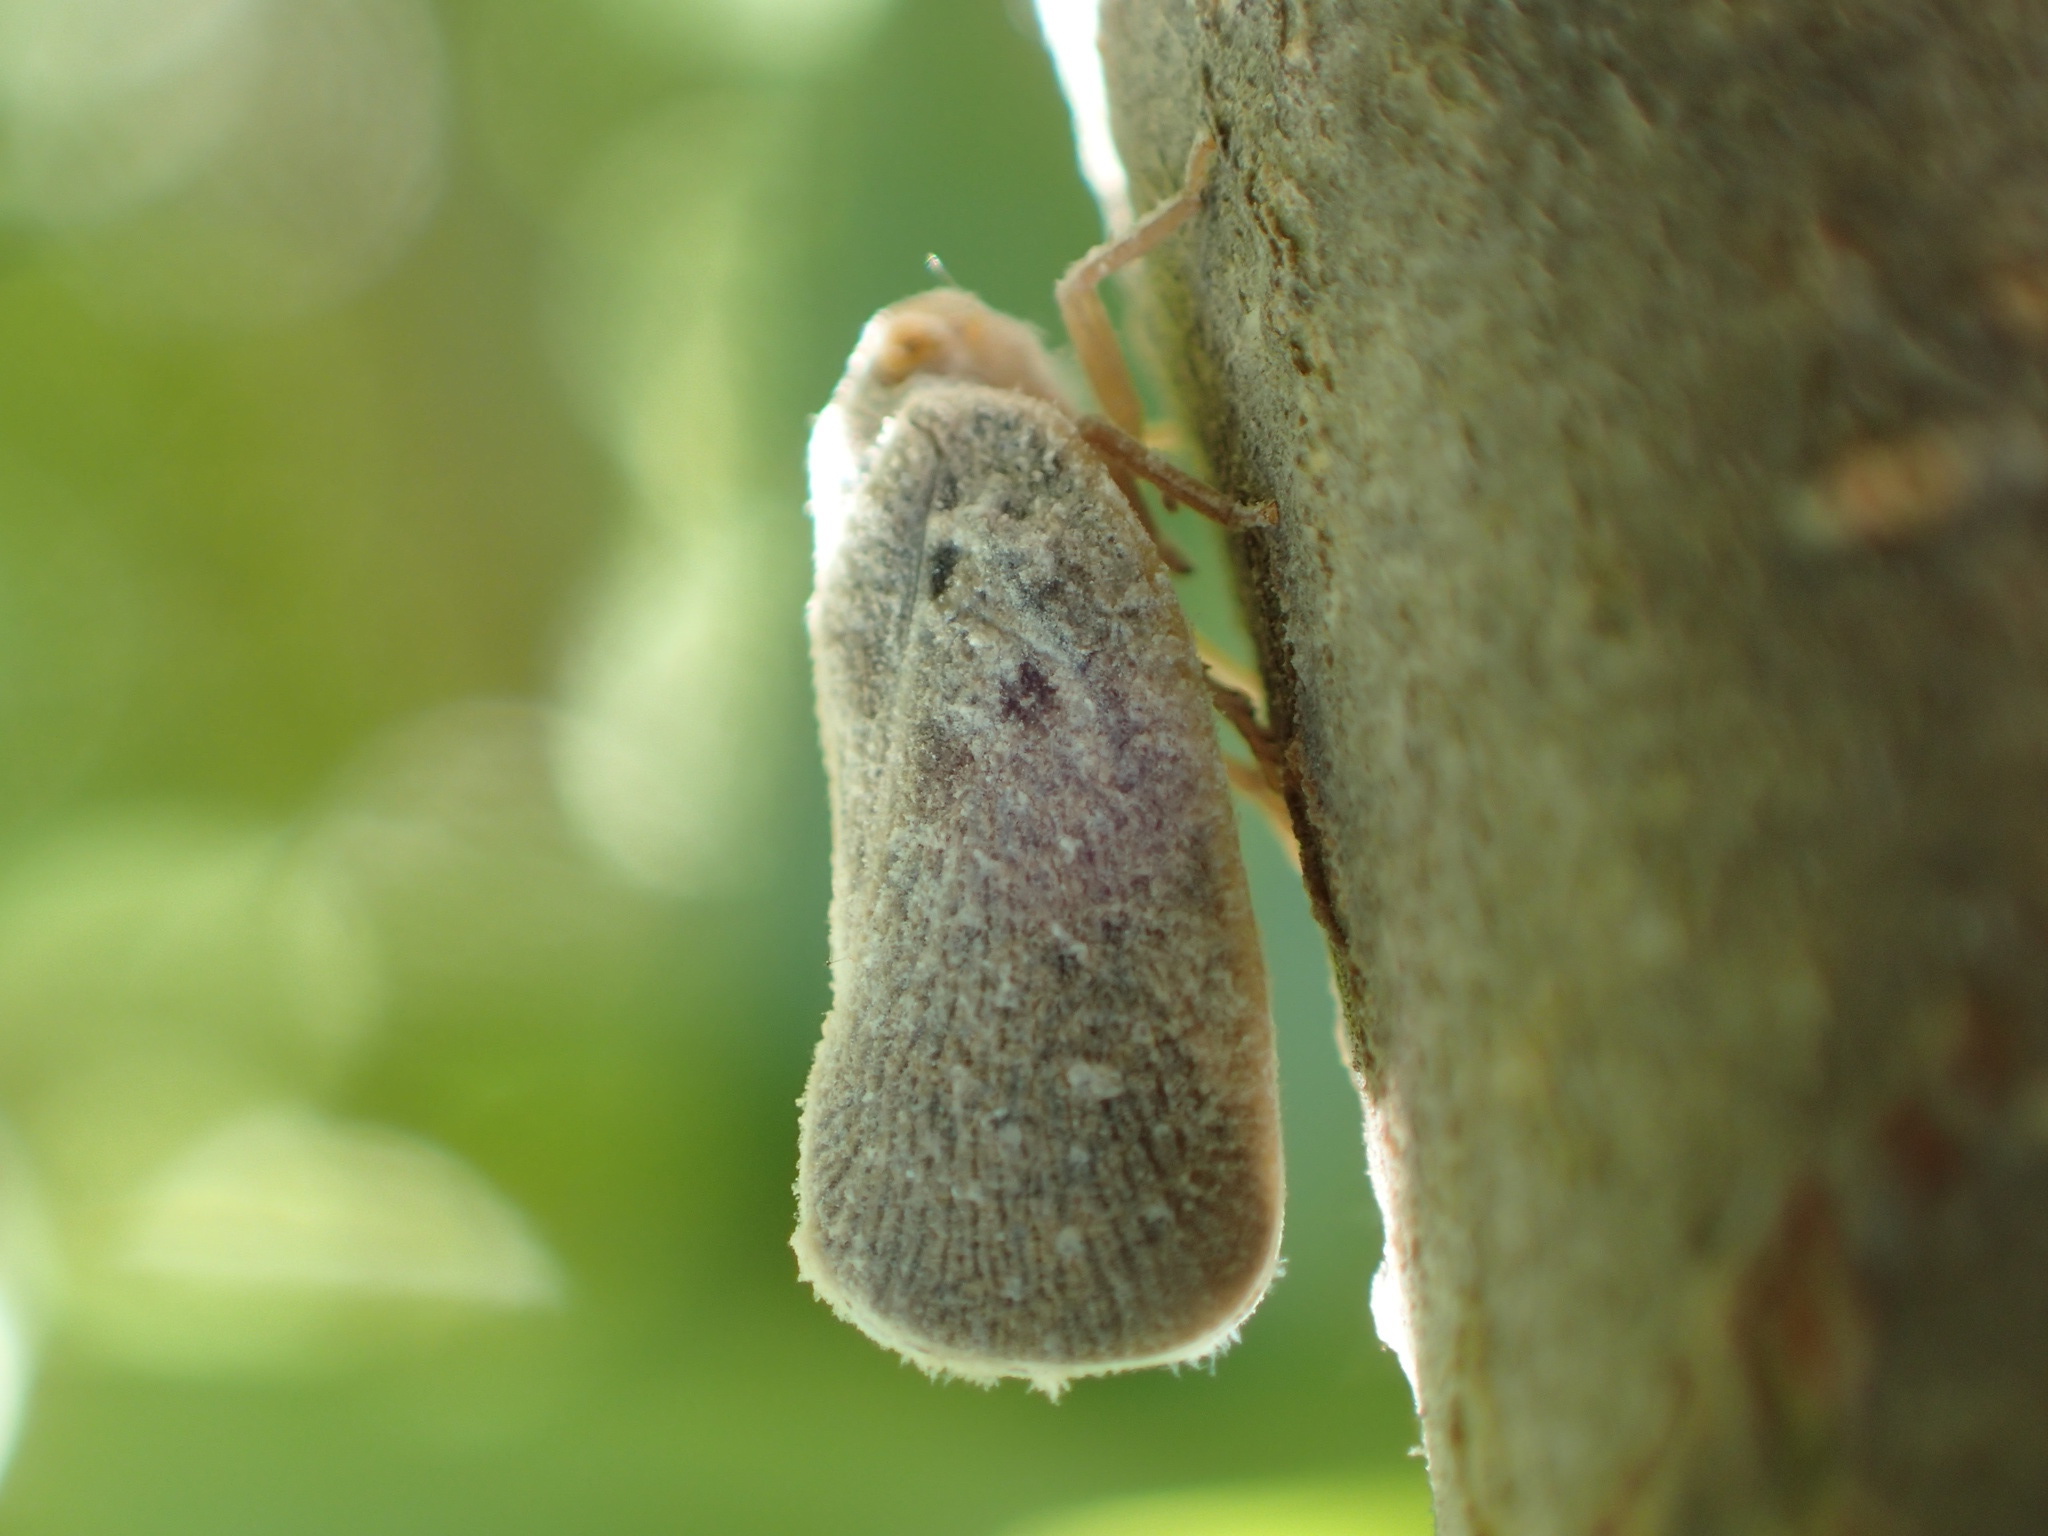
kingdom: Animalia
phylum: Arthropoda
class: Insecta
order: Hemiptera
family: Flatidae
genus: Metcalfa
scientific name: Metcalfa pruinosa
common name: Citrus flatid planthopper
